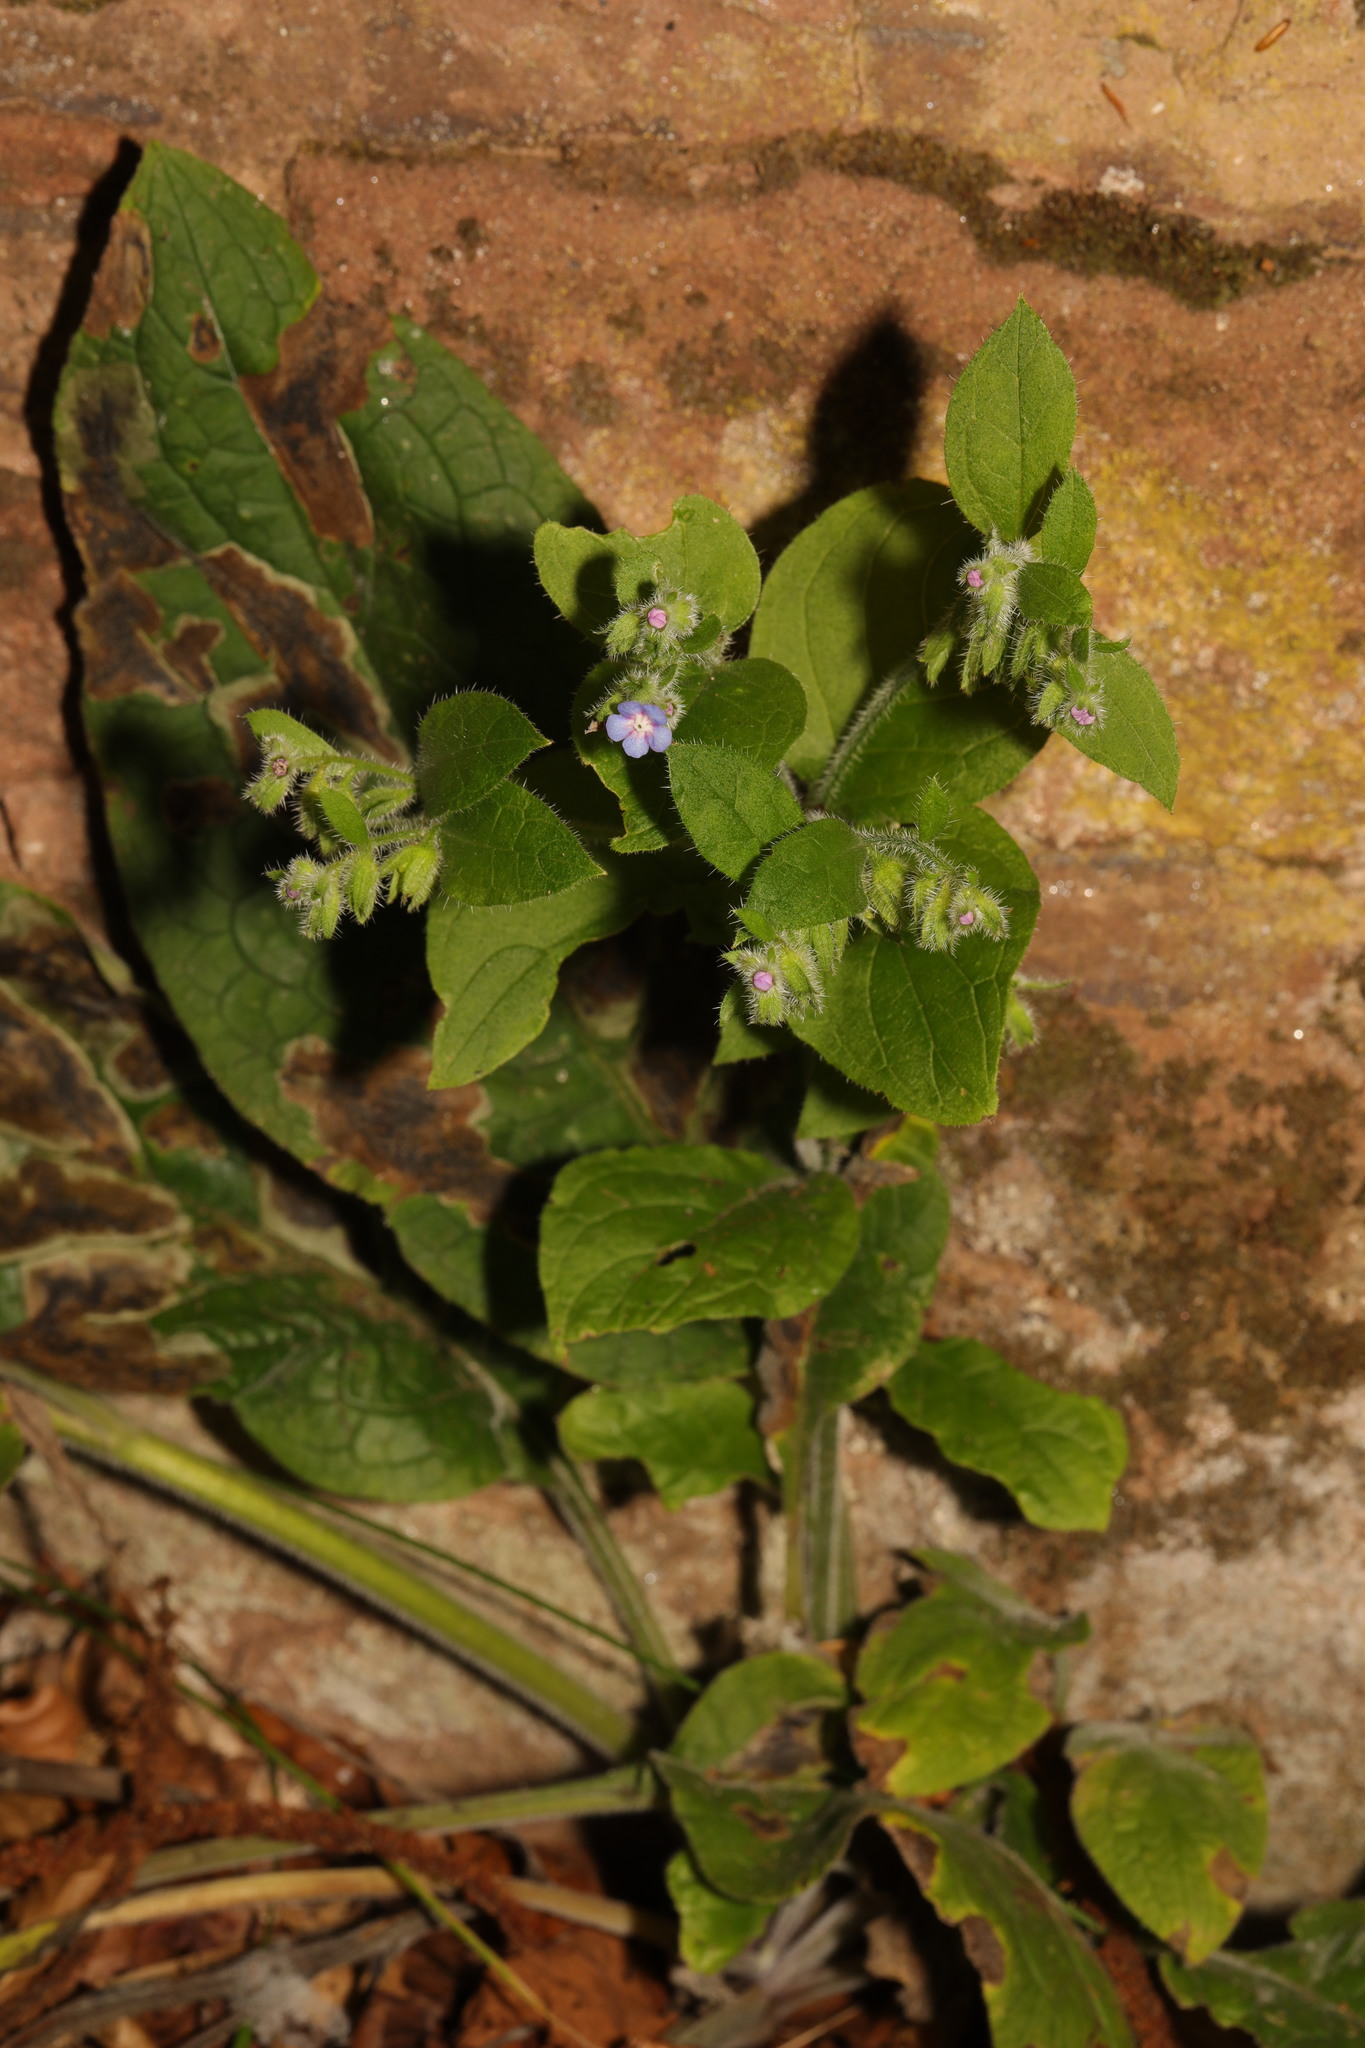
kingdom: Plantae
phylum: Tracheophyta
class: Magnoliopsida
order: Boraginales
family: Boraginaceae
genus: Pentaglottis
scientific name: Pentaglottis sempervirens
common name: Green alkanet
